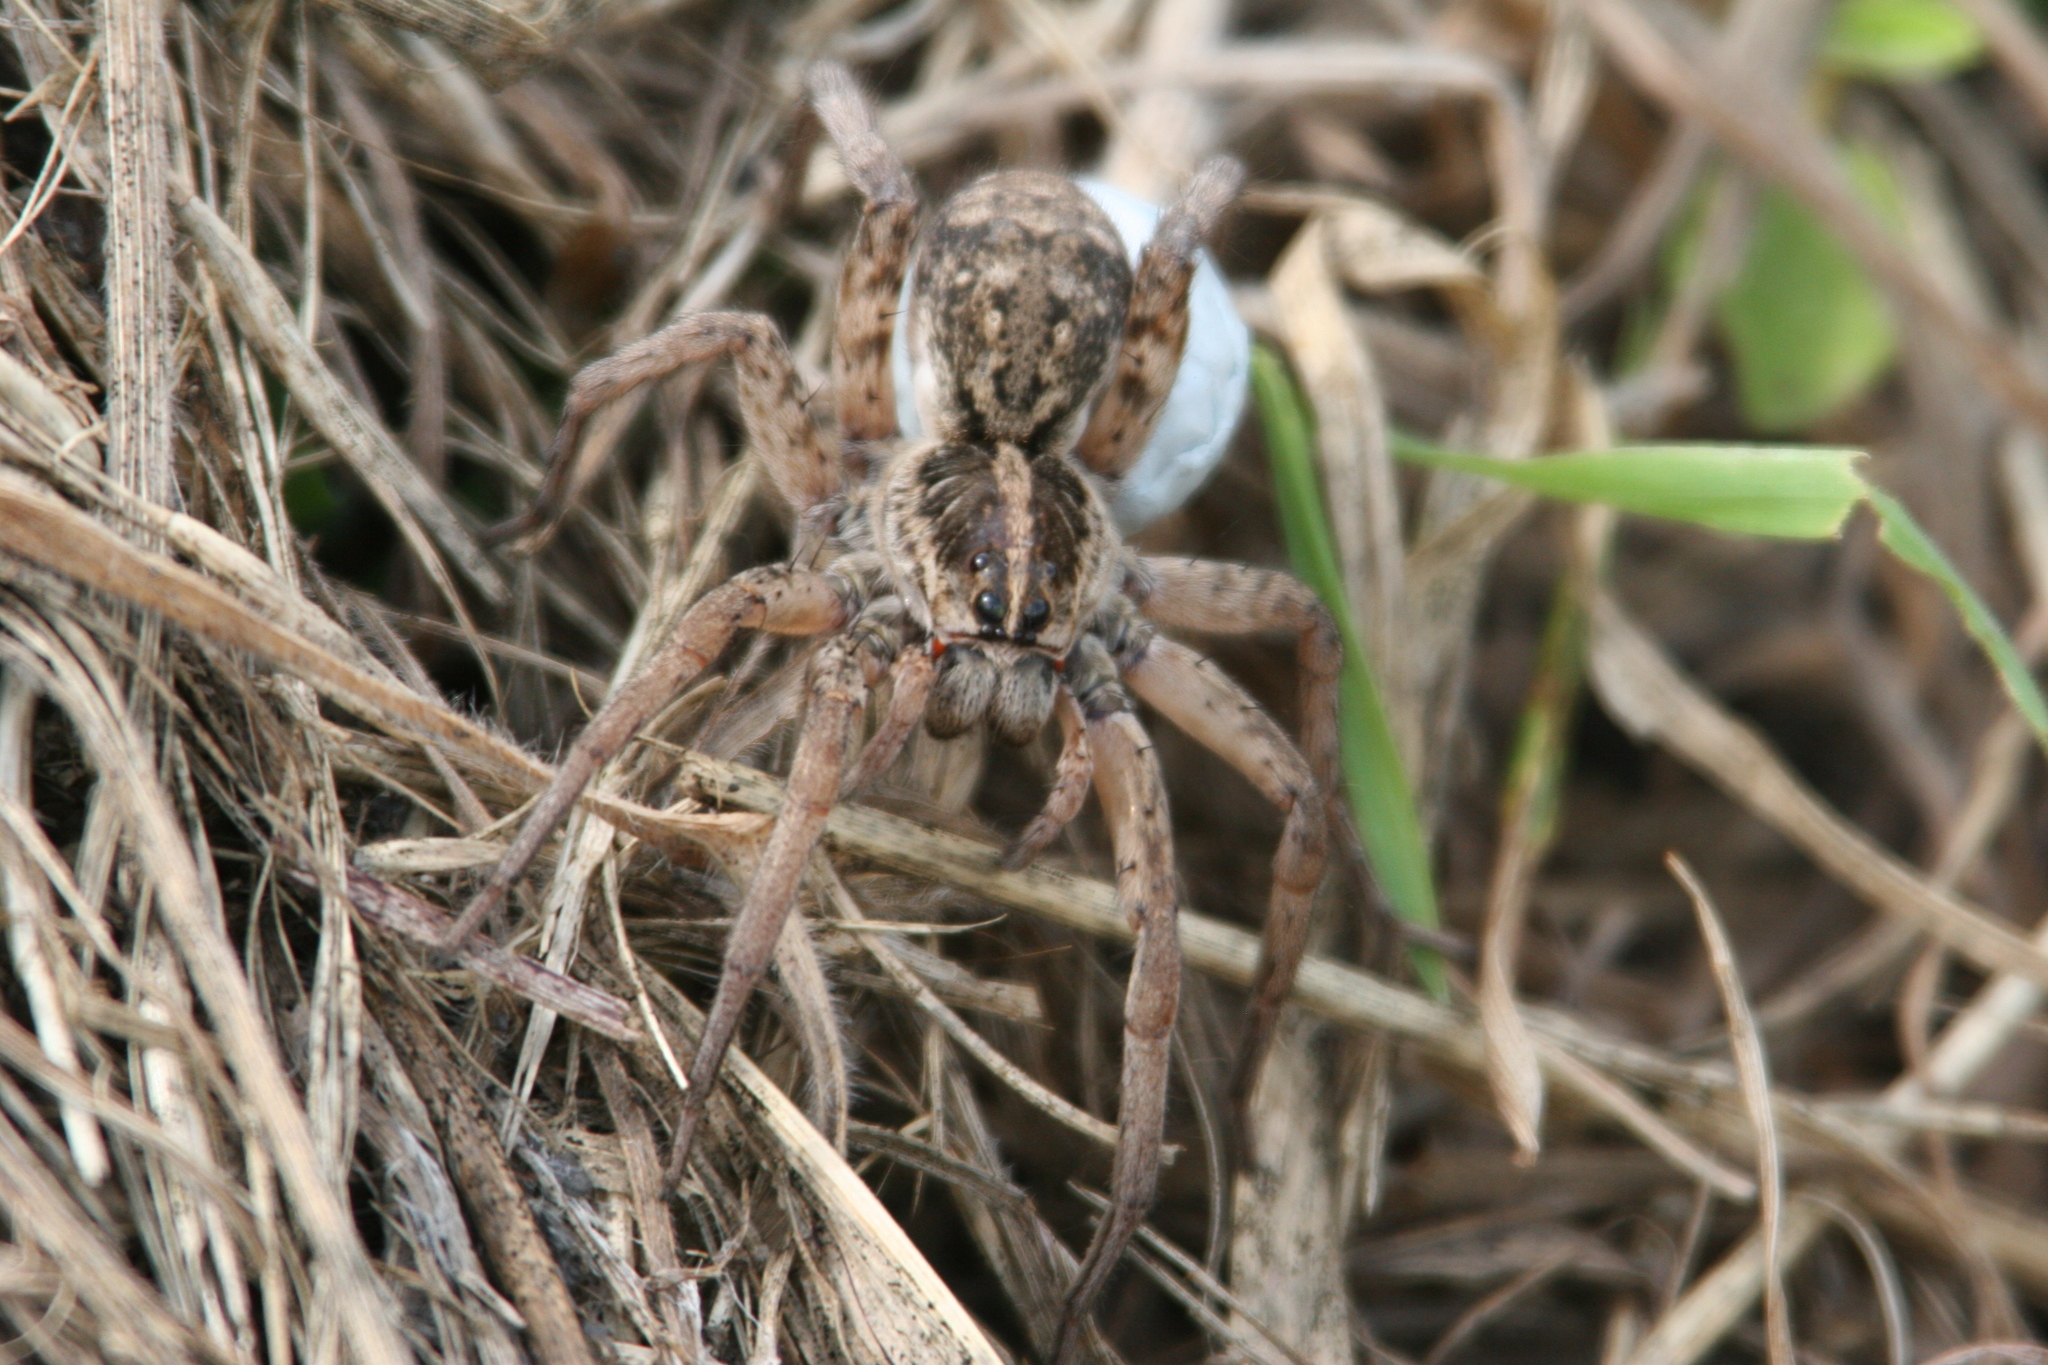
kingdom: Animalia
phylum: Arthropoda
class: Arachnida
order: Araneae
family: Lycosidae
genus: Hogna
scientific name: Hogna antelucana
